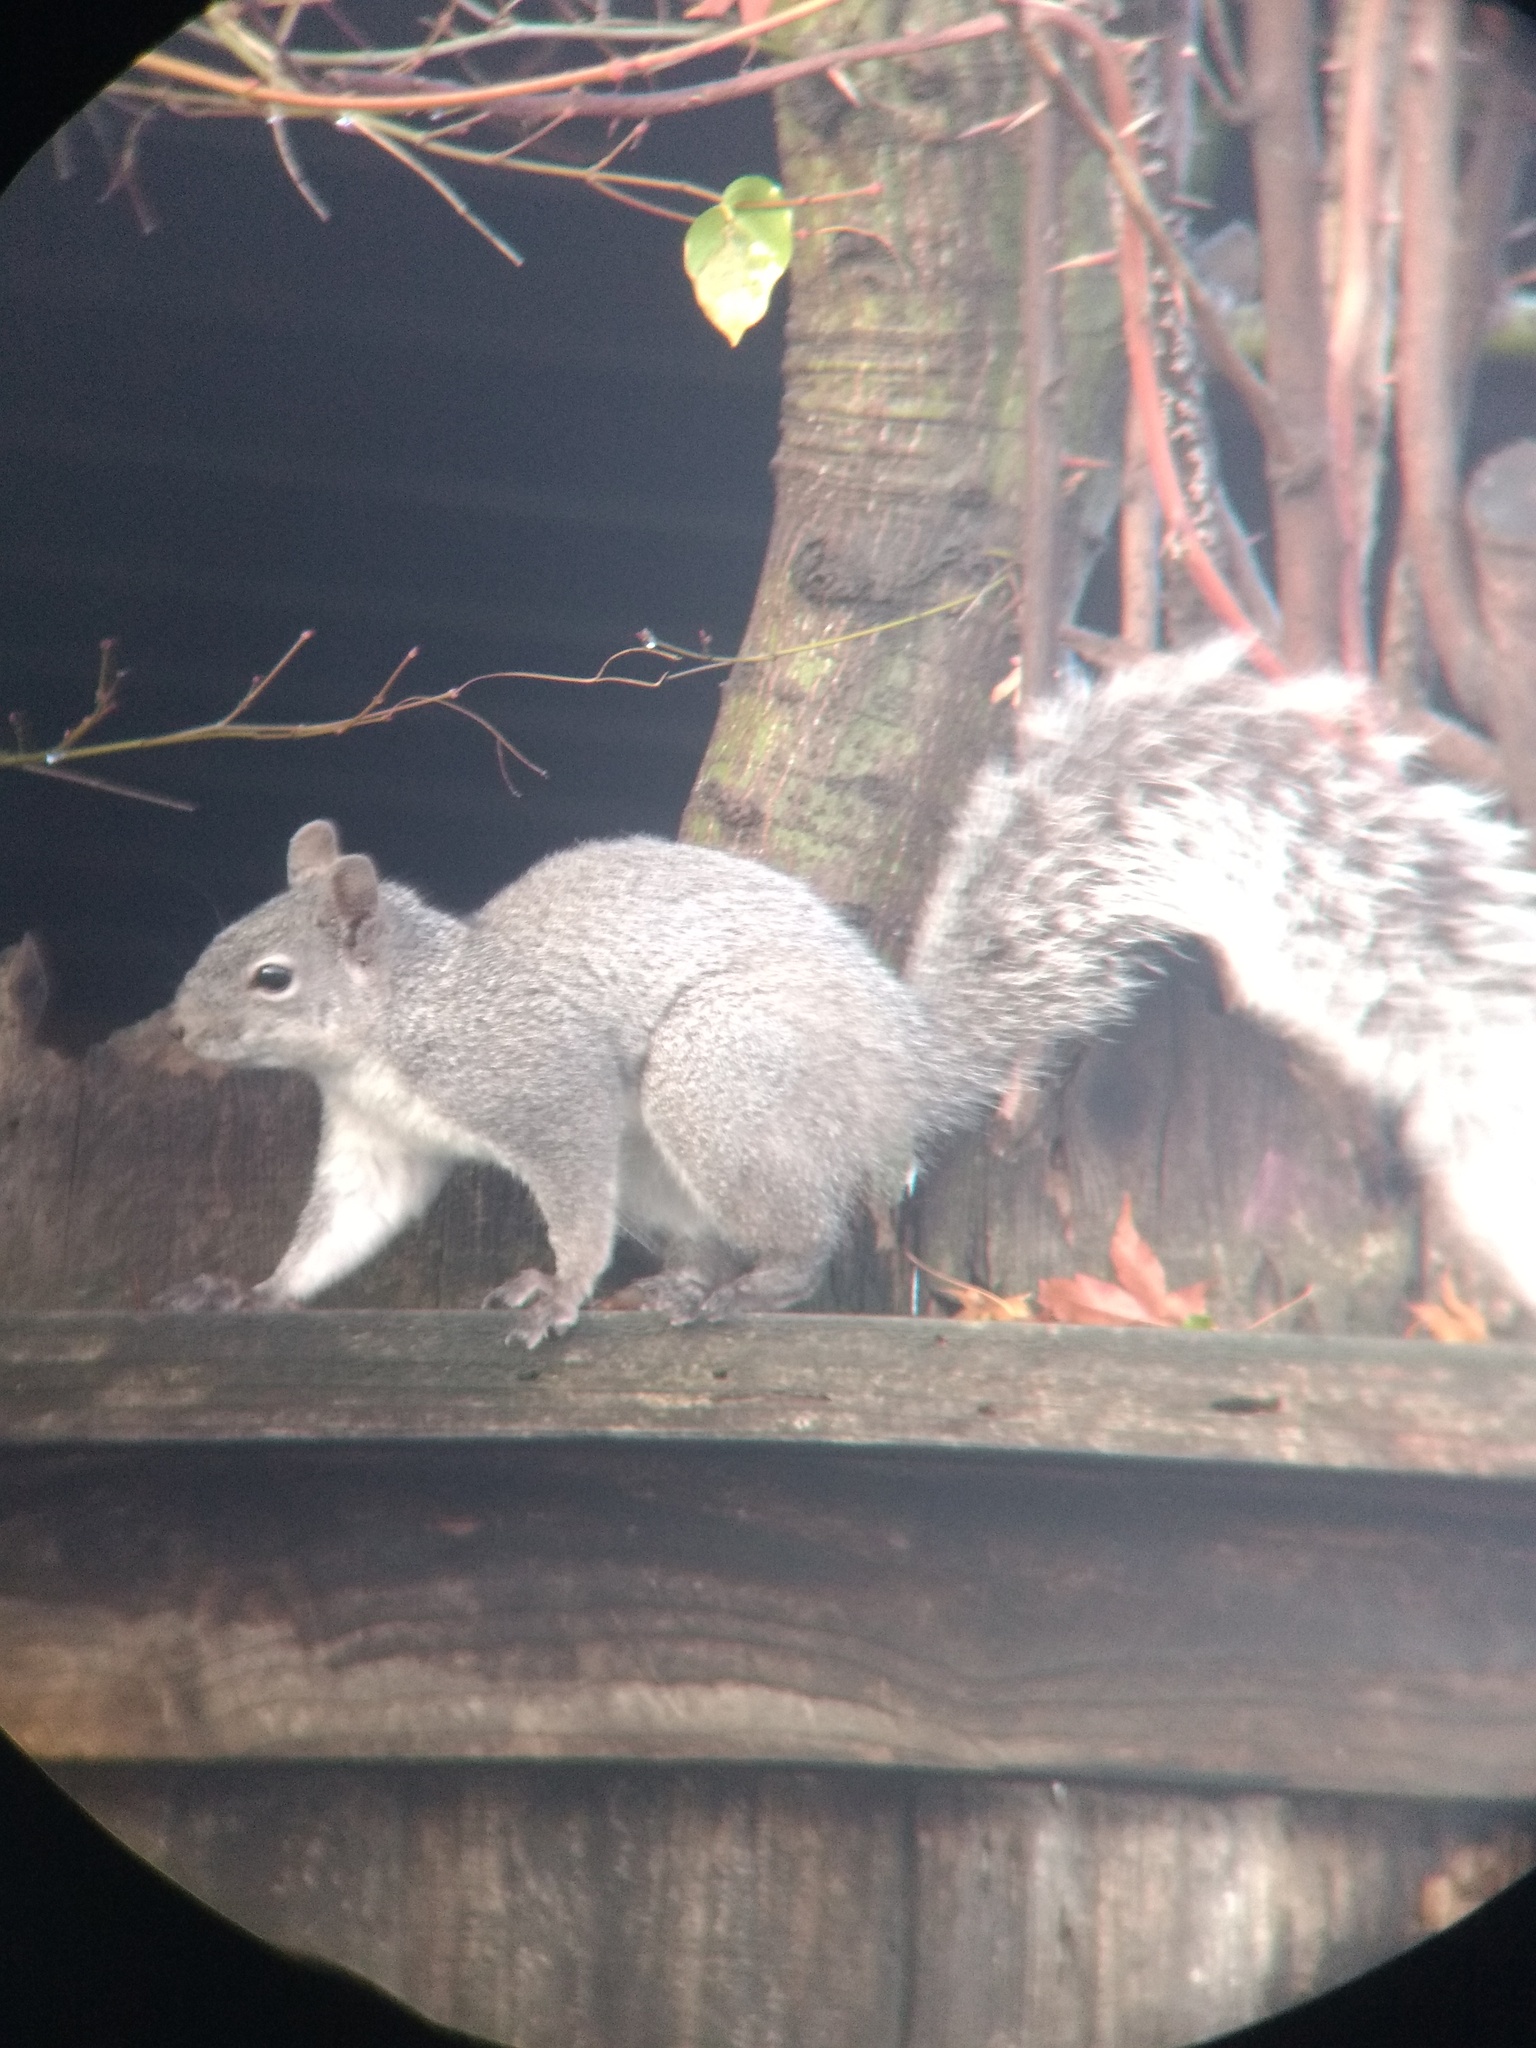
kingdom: Animalia
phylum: Chordata
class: Mammalia
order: Rodentia
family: Sciuridae
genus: Sciurus
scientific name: Sciurus griseus
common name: Western gray squirrel
